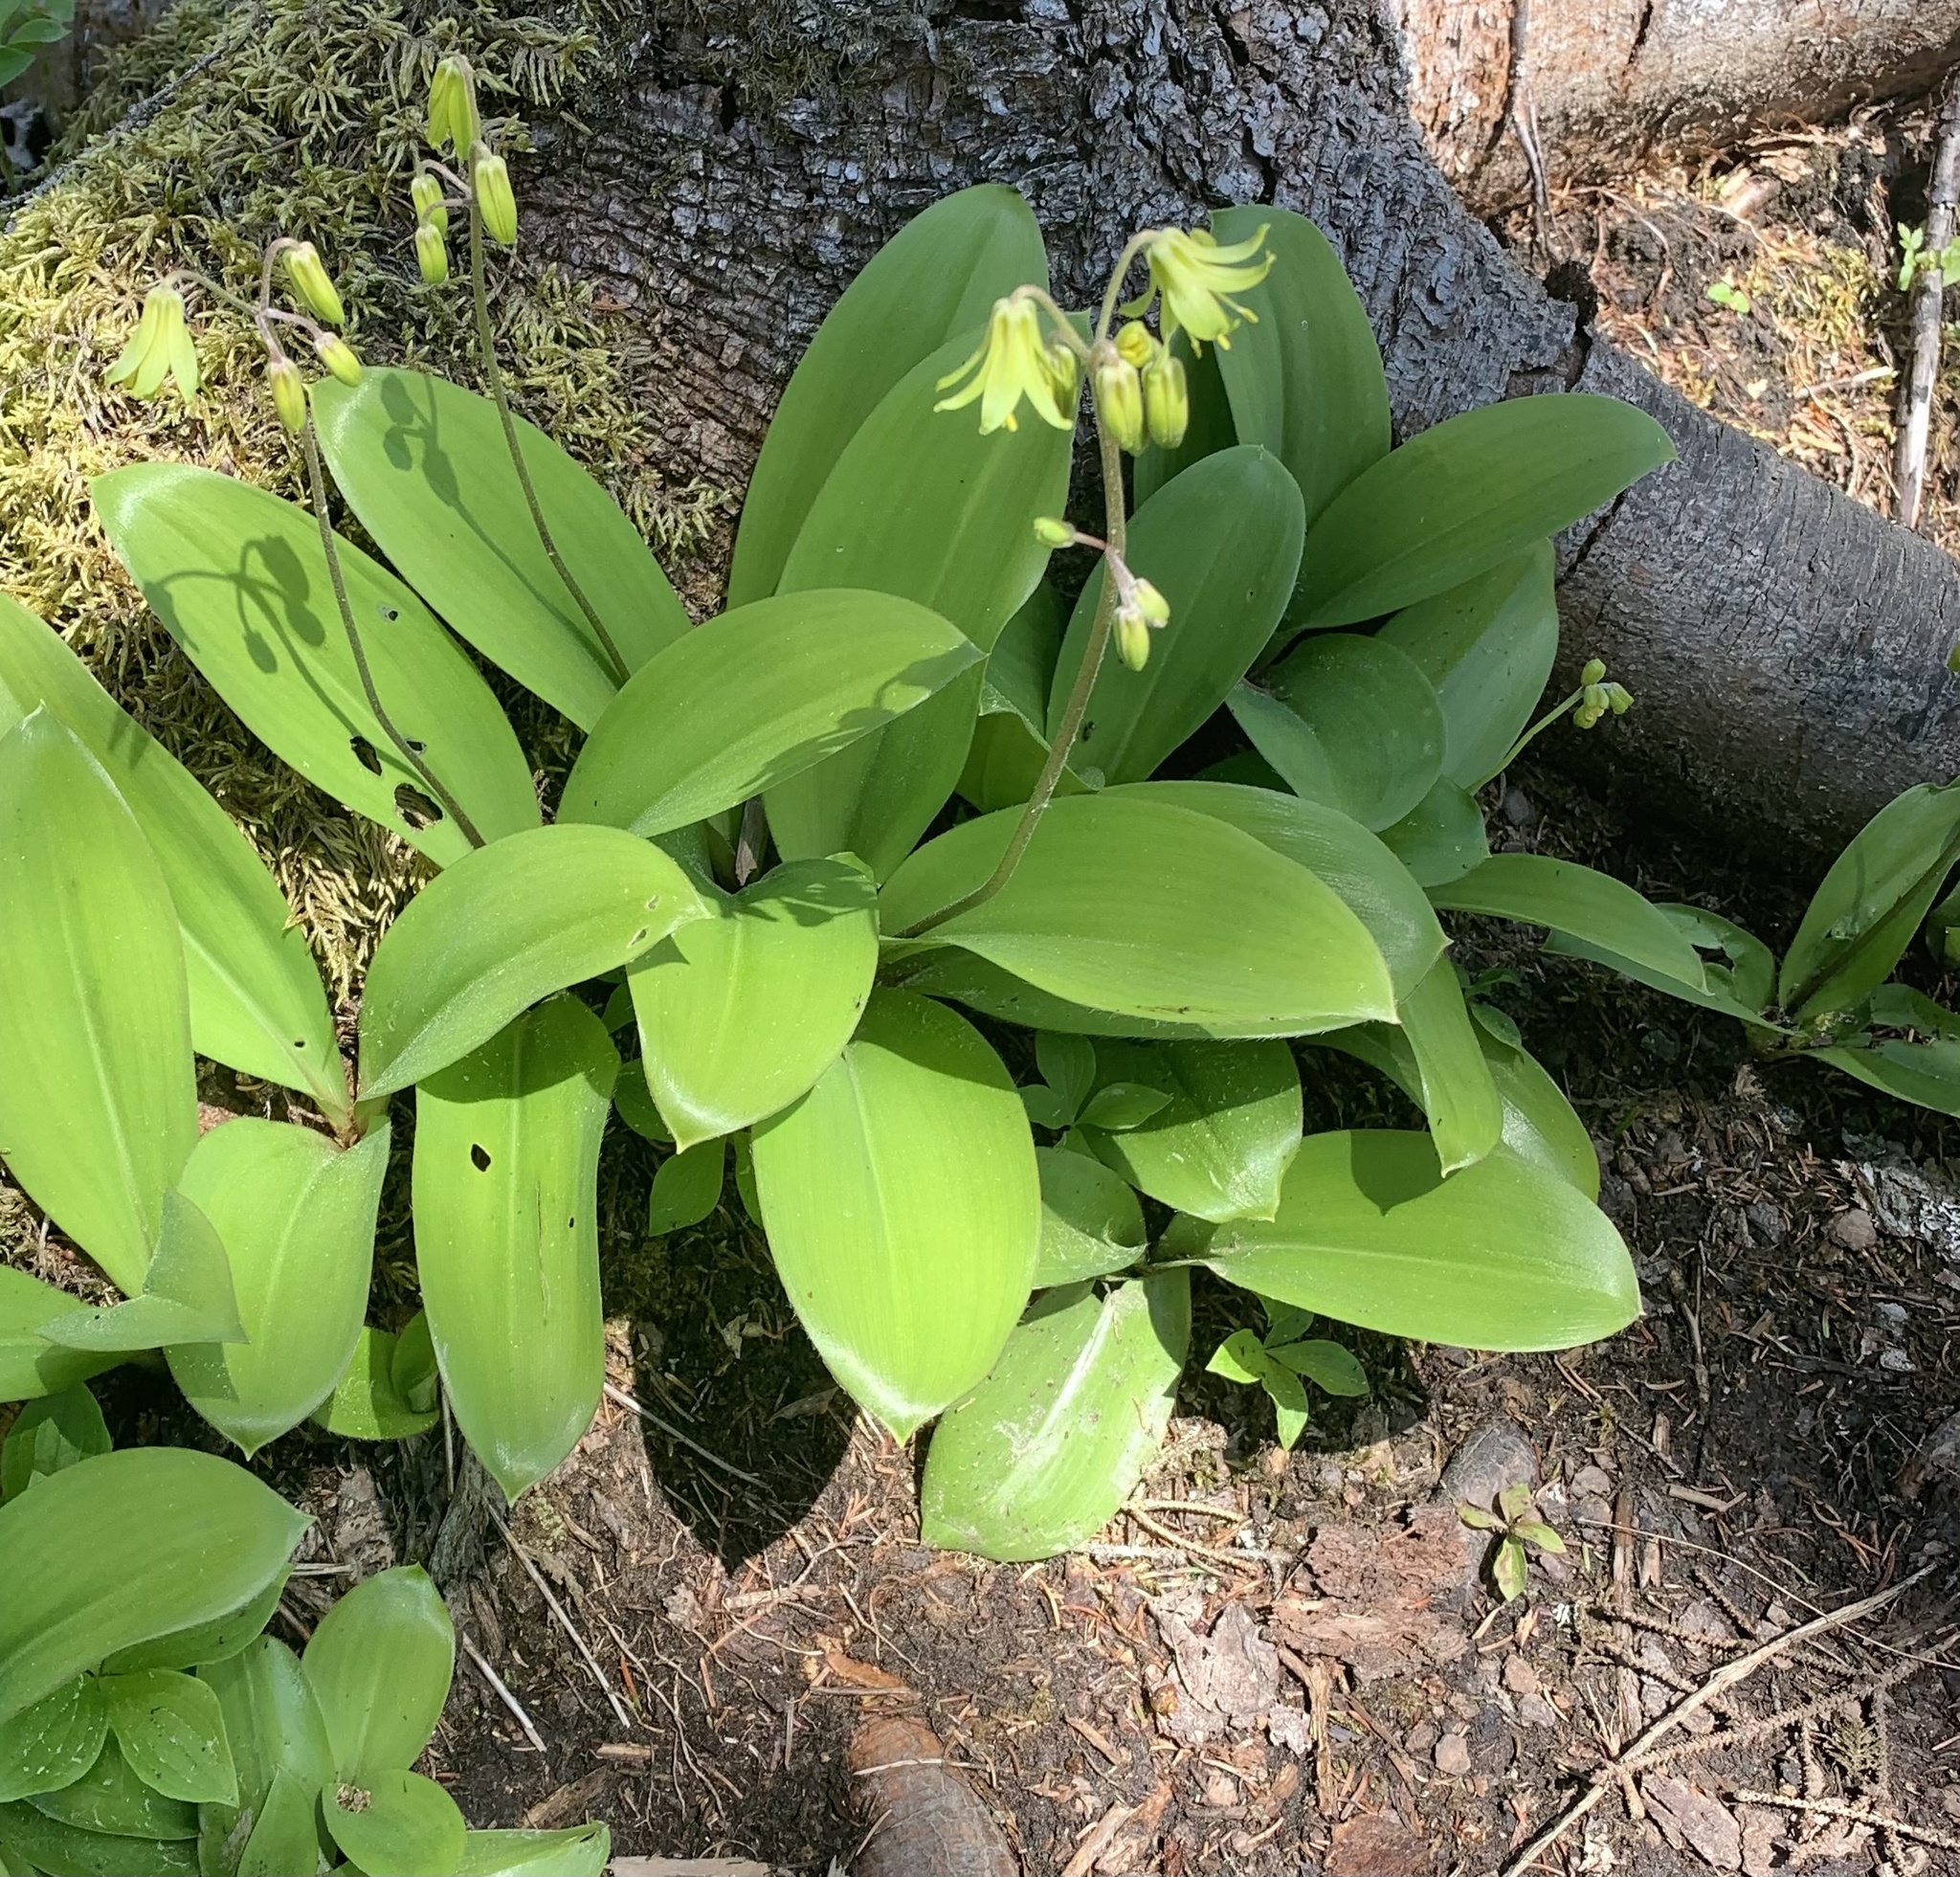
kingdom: Plantae
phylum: Tracheophyta
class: Liliopsida
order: Liliales
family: Liliaceae
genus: Clintonia
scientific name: Clintonia borealis
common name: Yellow clintonia
